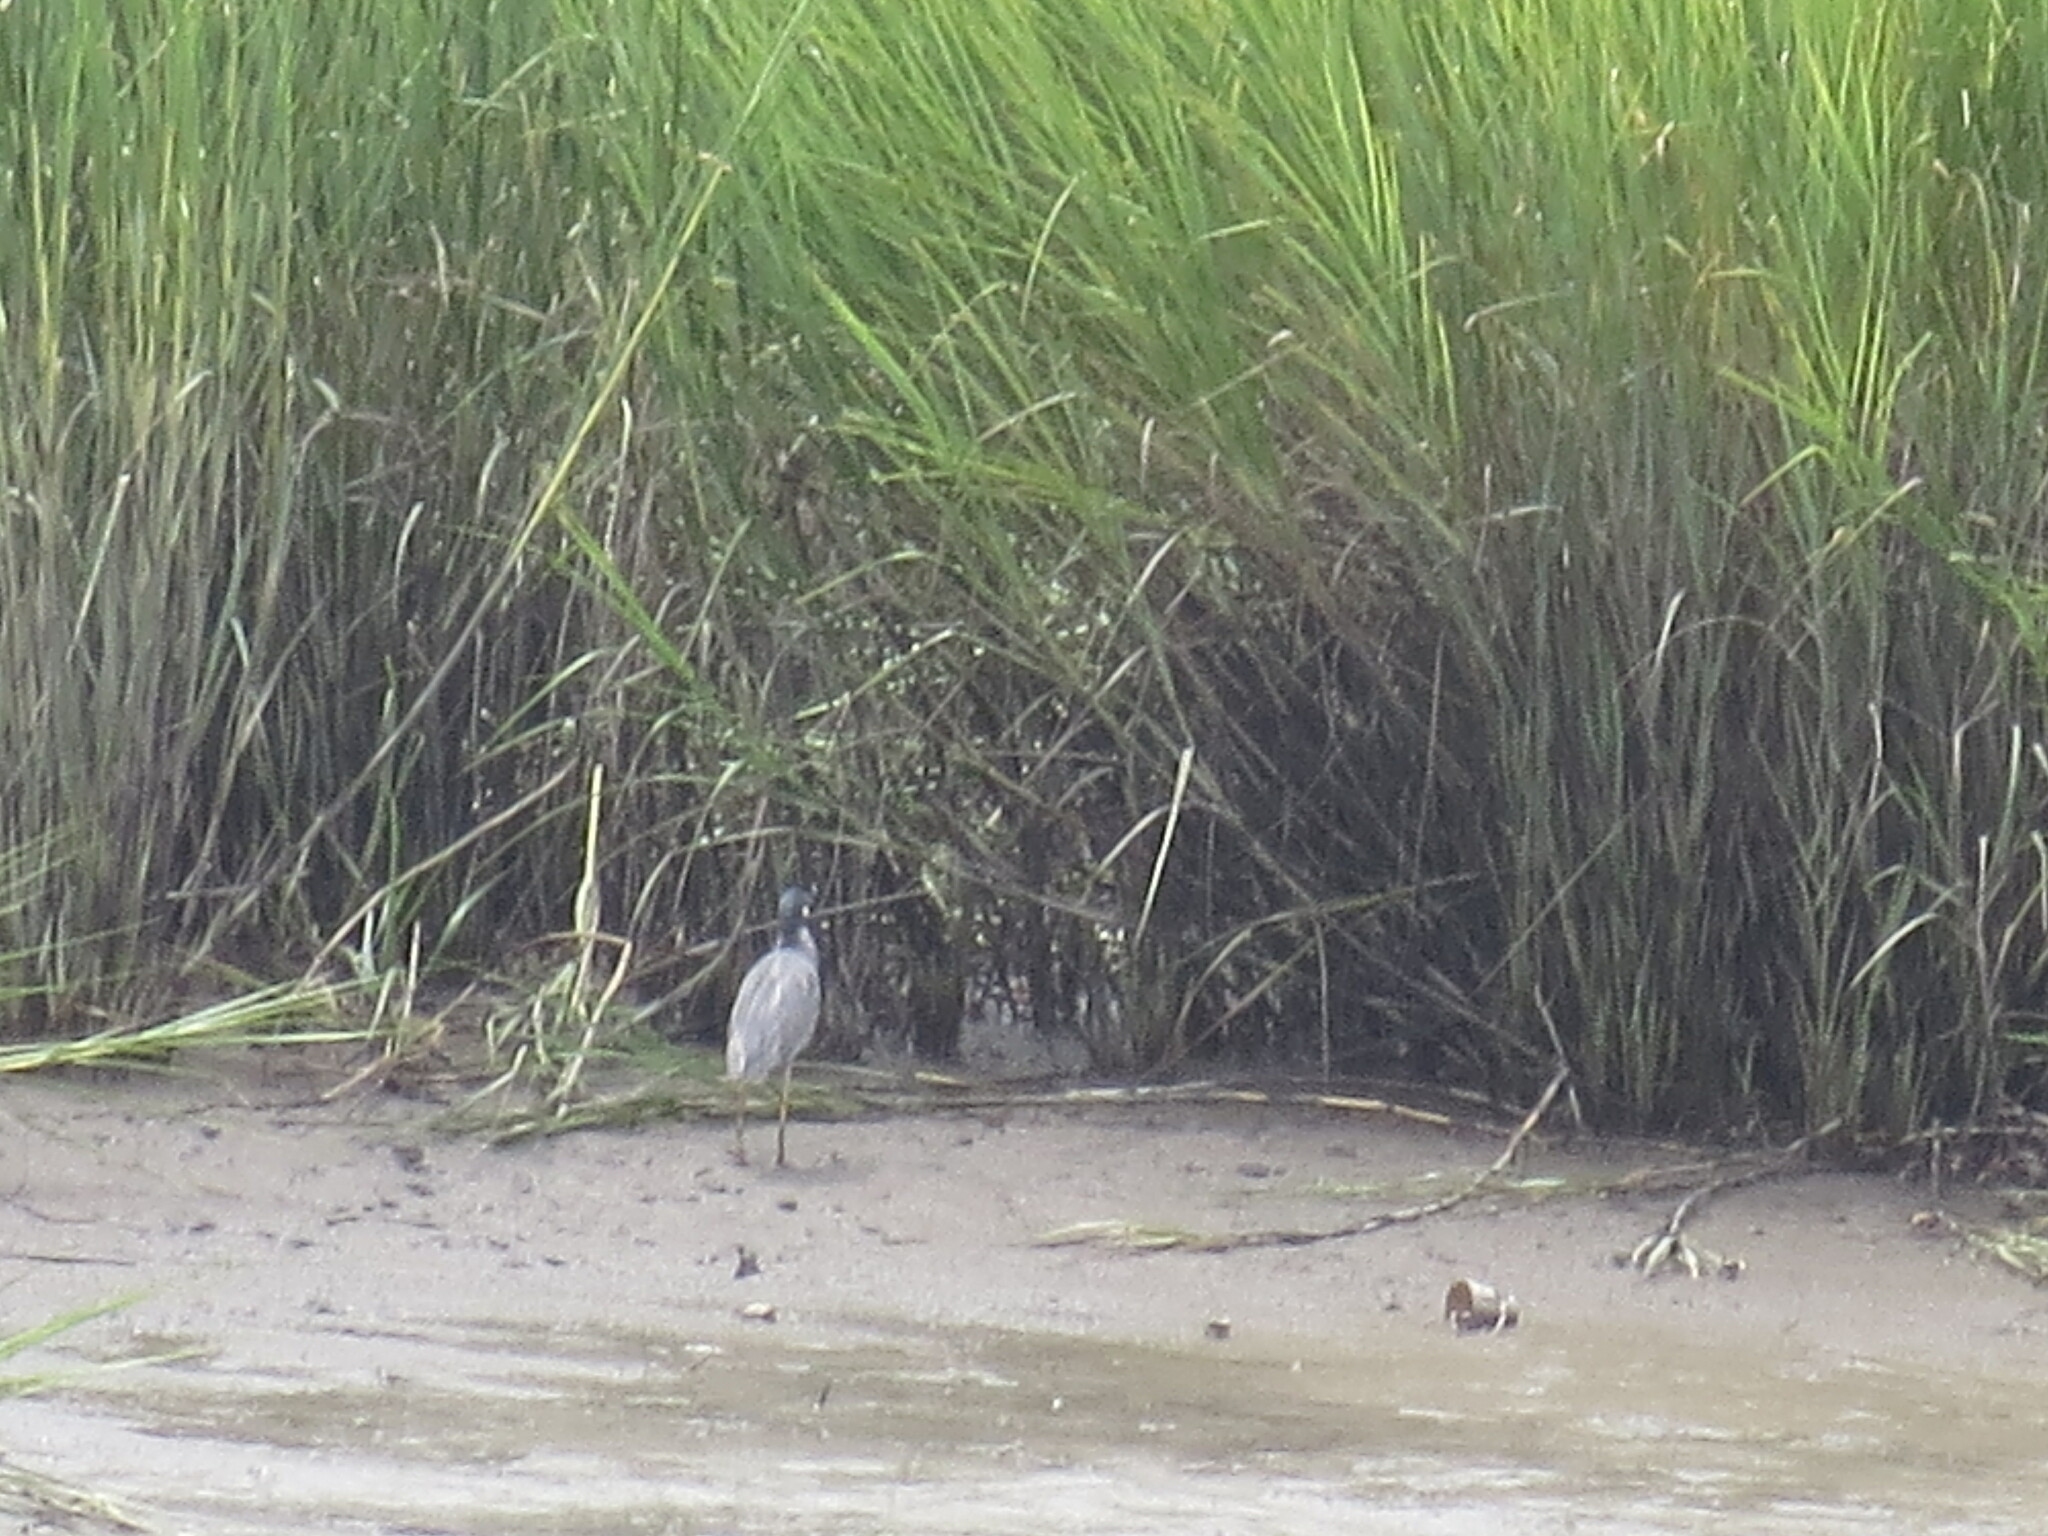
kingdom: Animalia
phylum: Chordata
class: Aves
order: Pelecaniformes
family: Ardeidae
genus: Nyctanassa
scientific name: Nyctanassa violacea
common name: Yellow-crowned night heron
